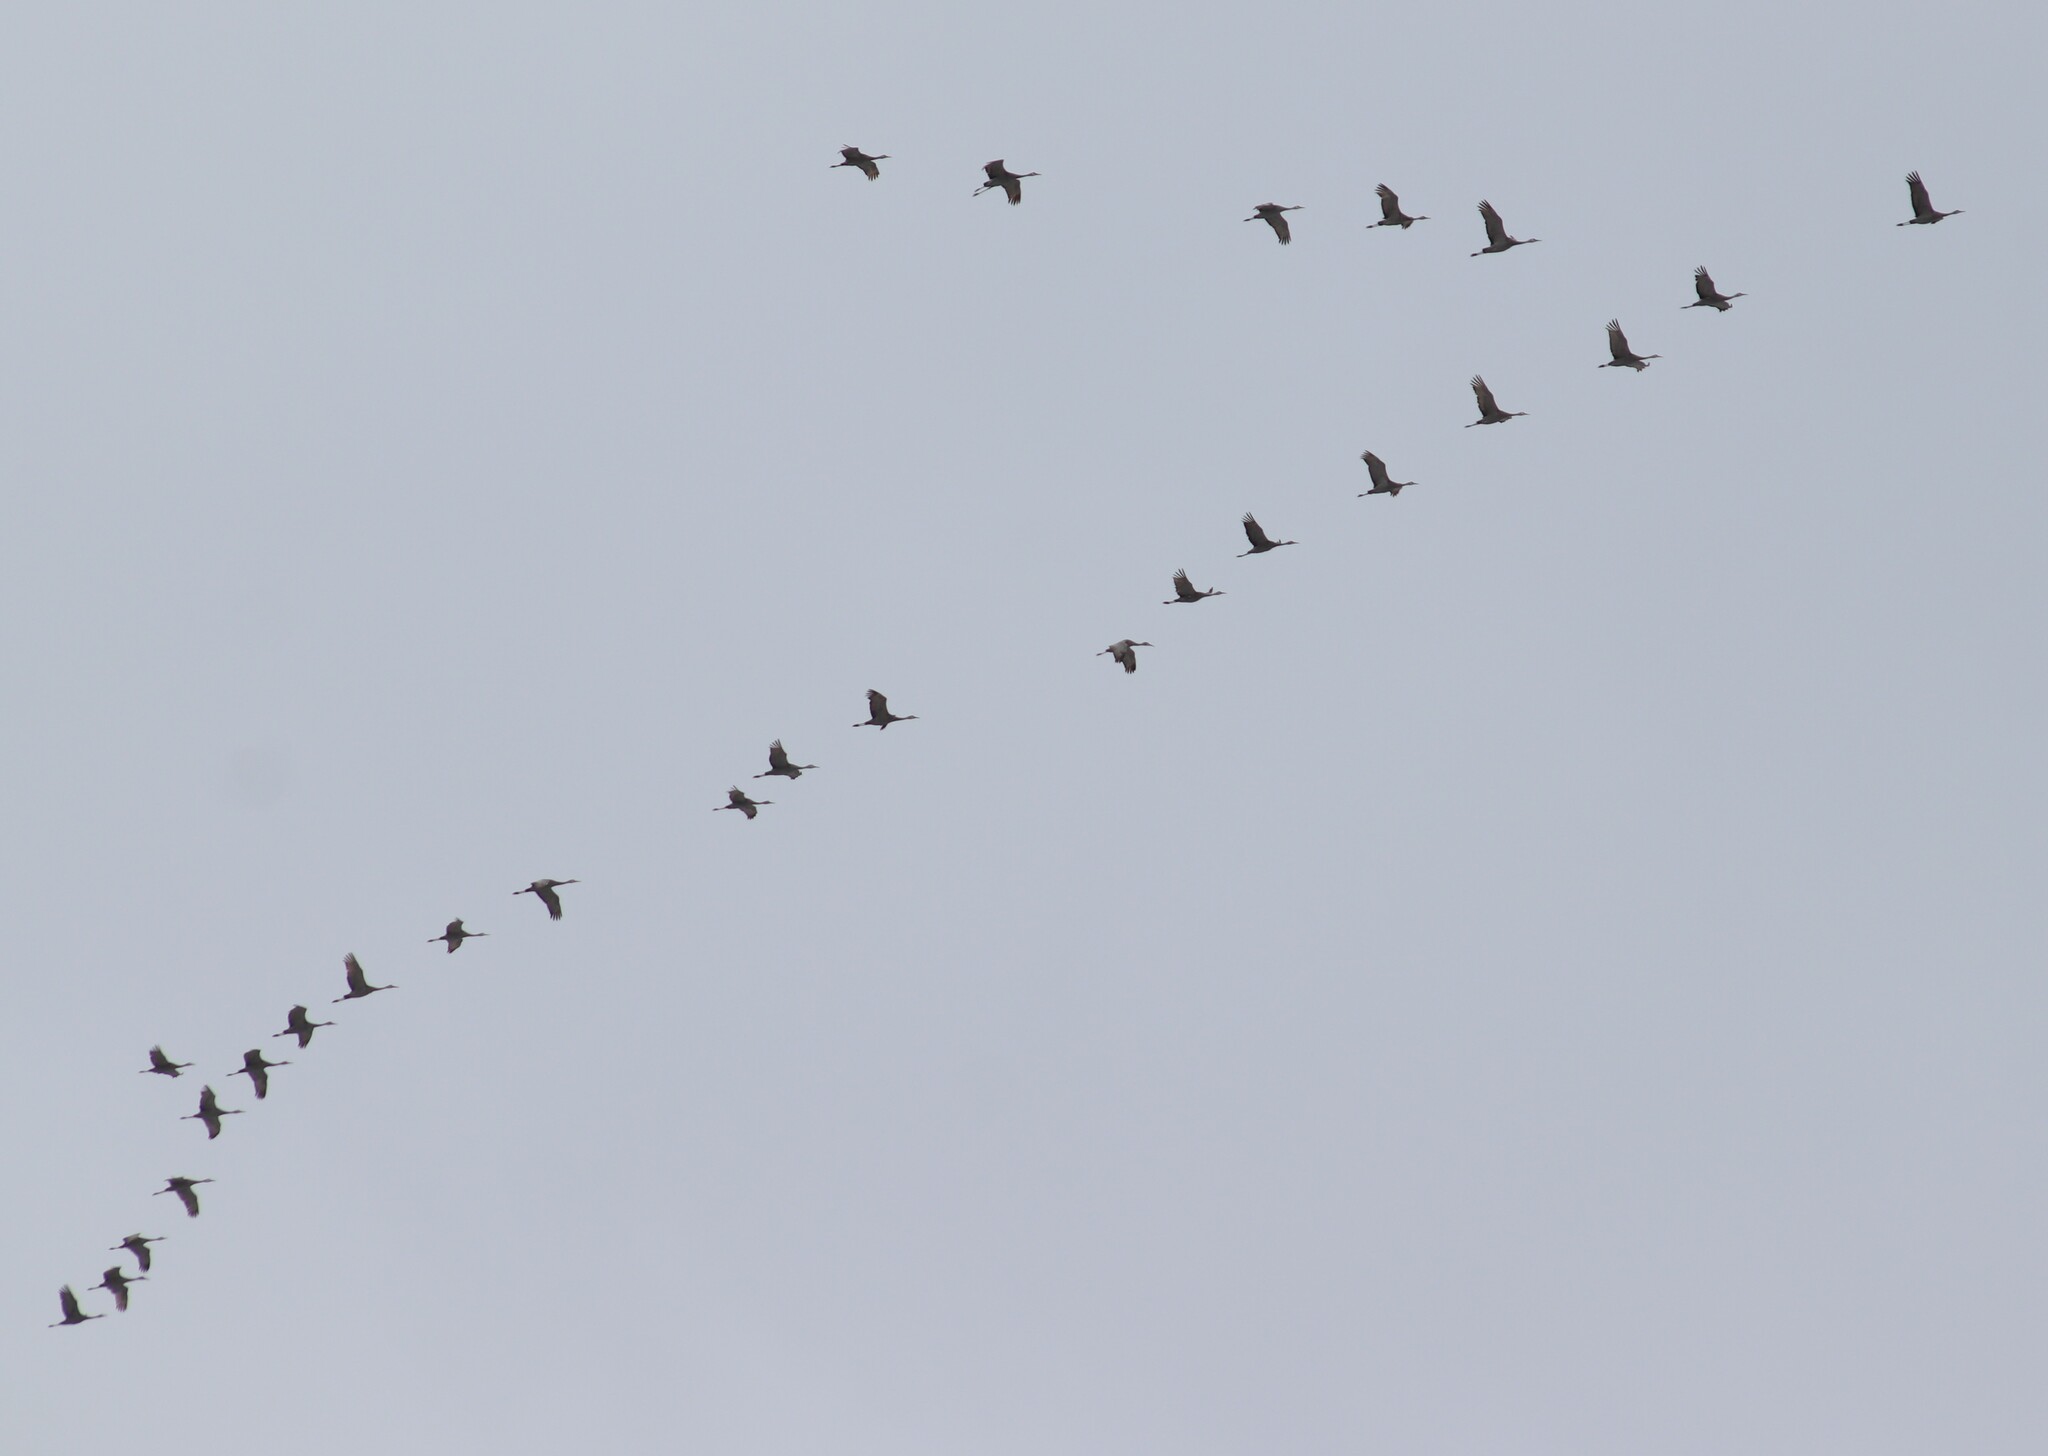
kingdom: Animalia
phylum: Chordata
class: Aves
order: Gruiformes
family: Gruidae
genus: Grus
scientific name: Grus canadensis
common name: Sandhill crane
